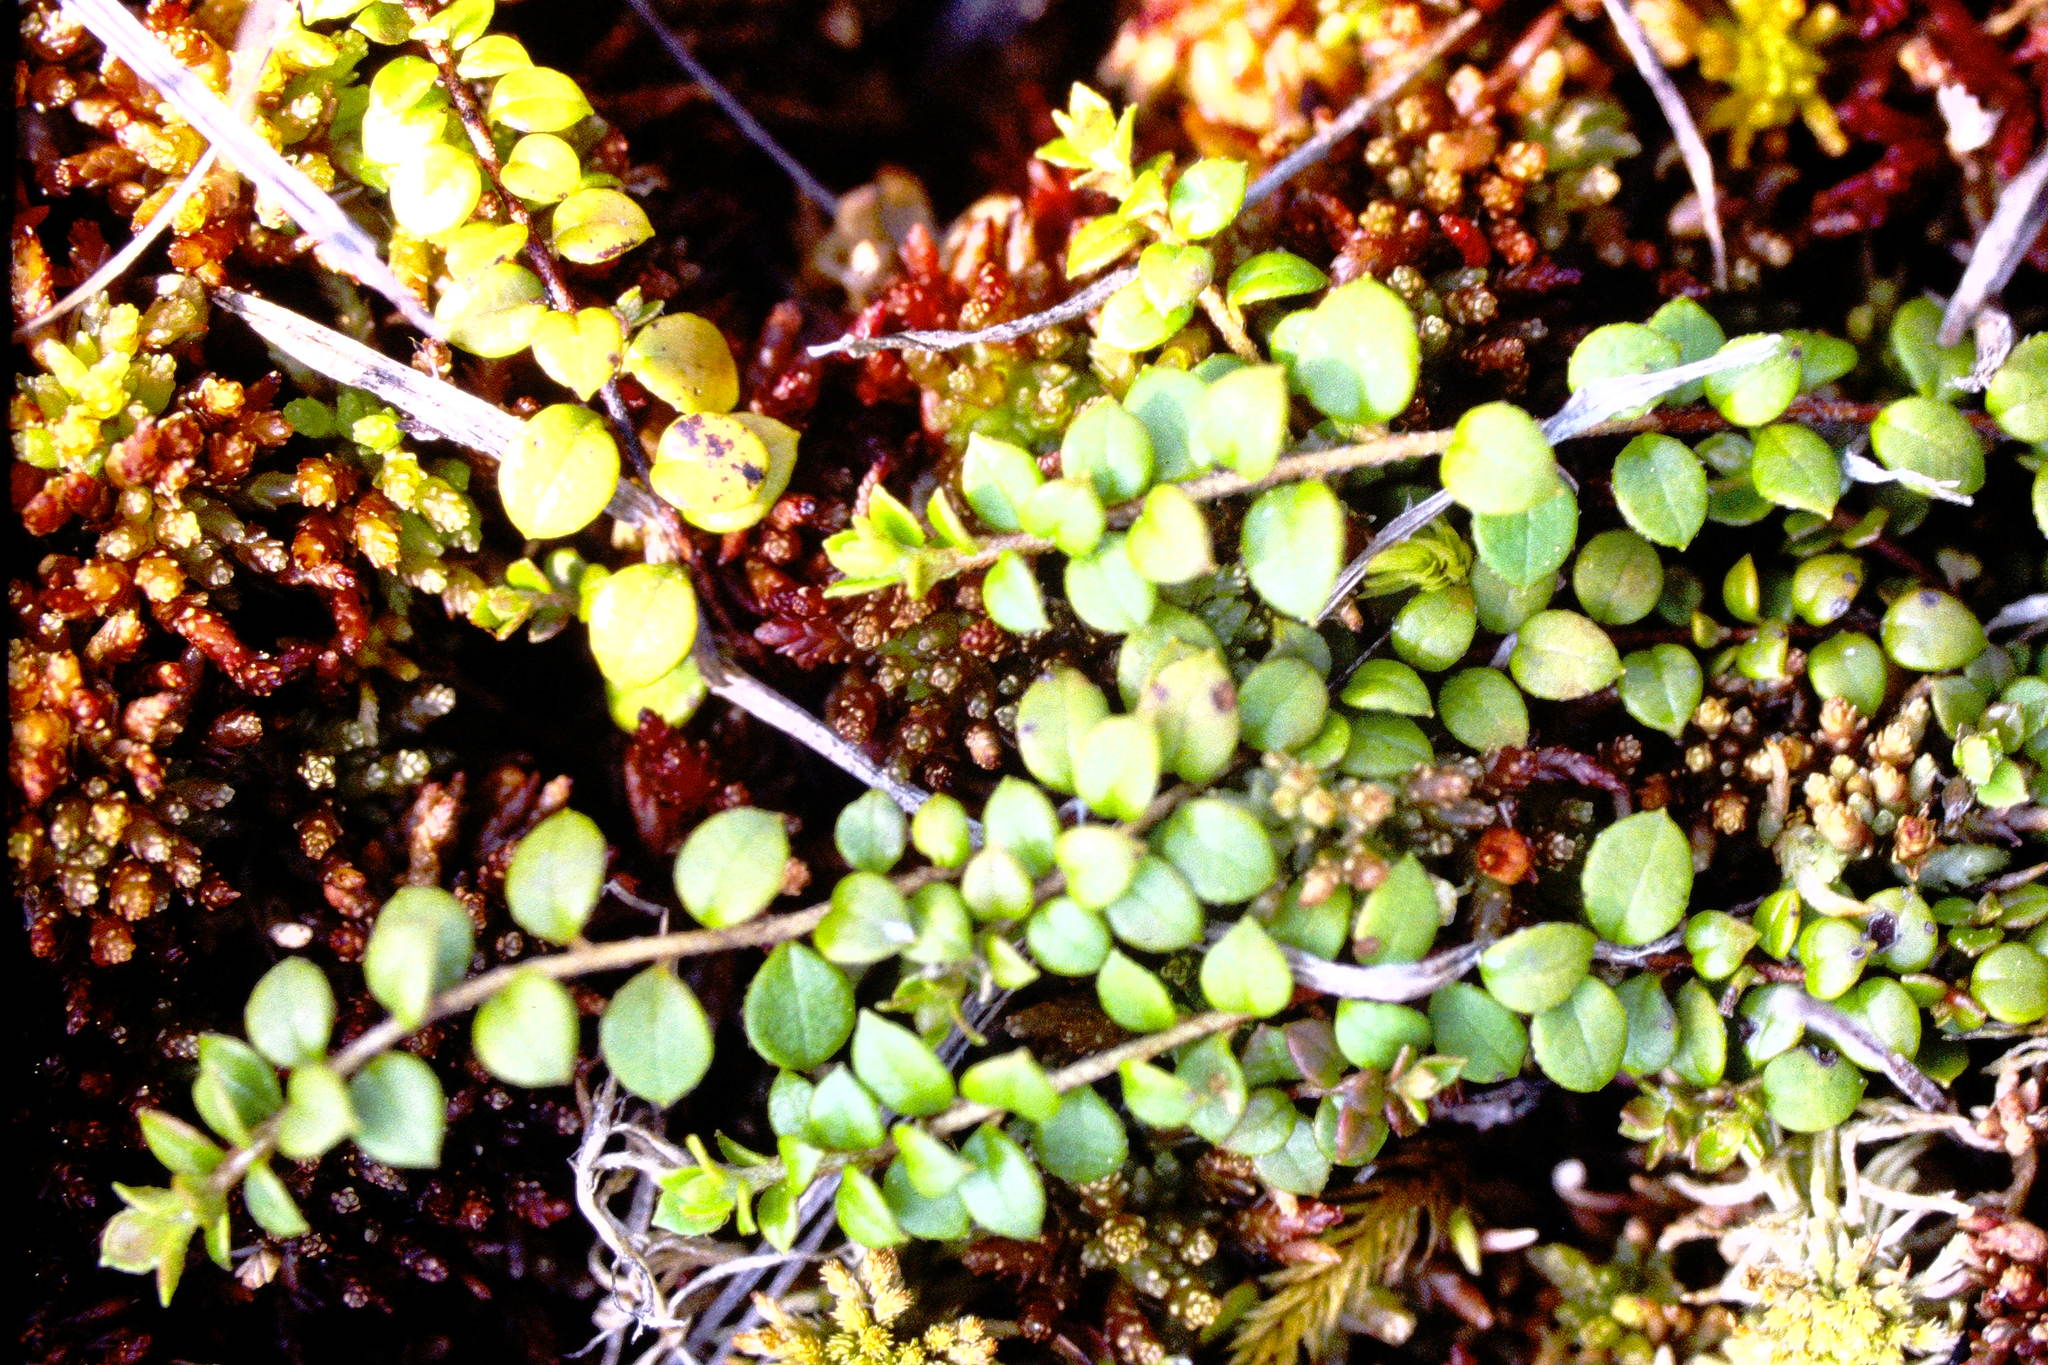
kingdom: Plantae
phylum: Tracheophyta
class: Magnoliopsida
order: Ericales
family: Ericaceae
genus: Gaultheria
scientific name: Gaultheria hispidula
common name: Cancer wintergreen
